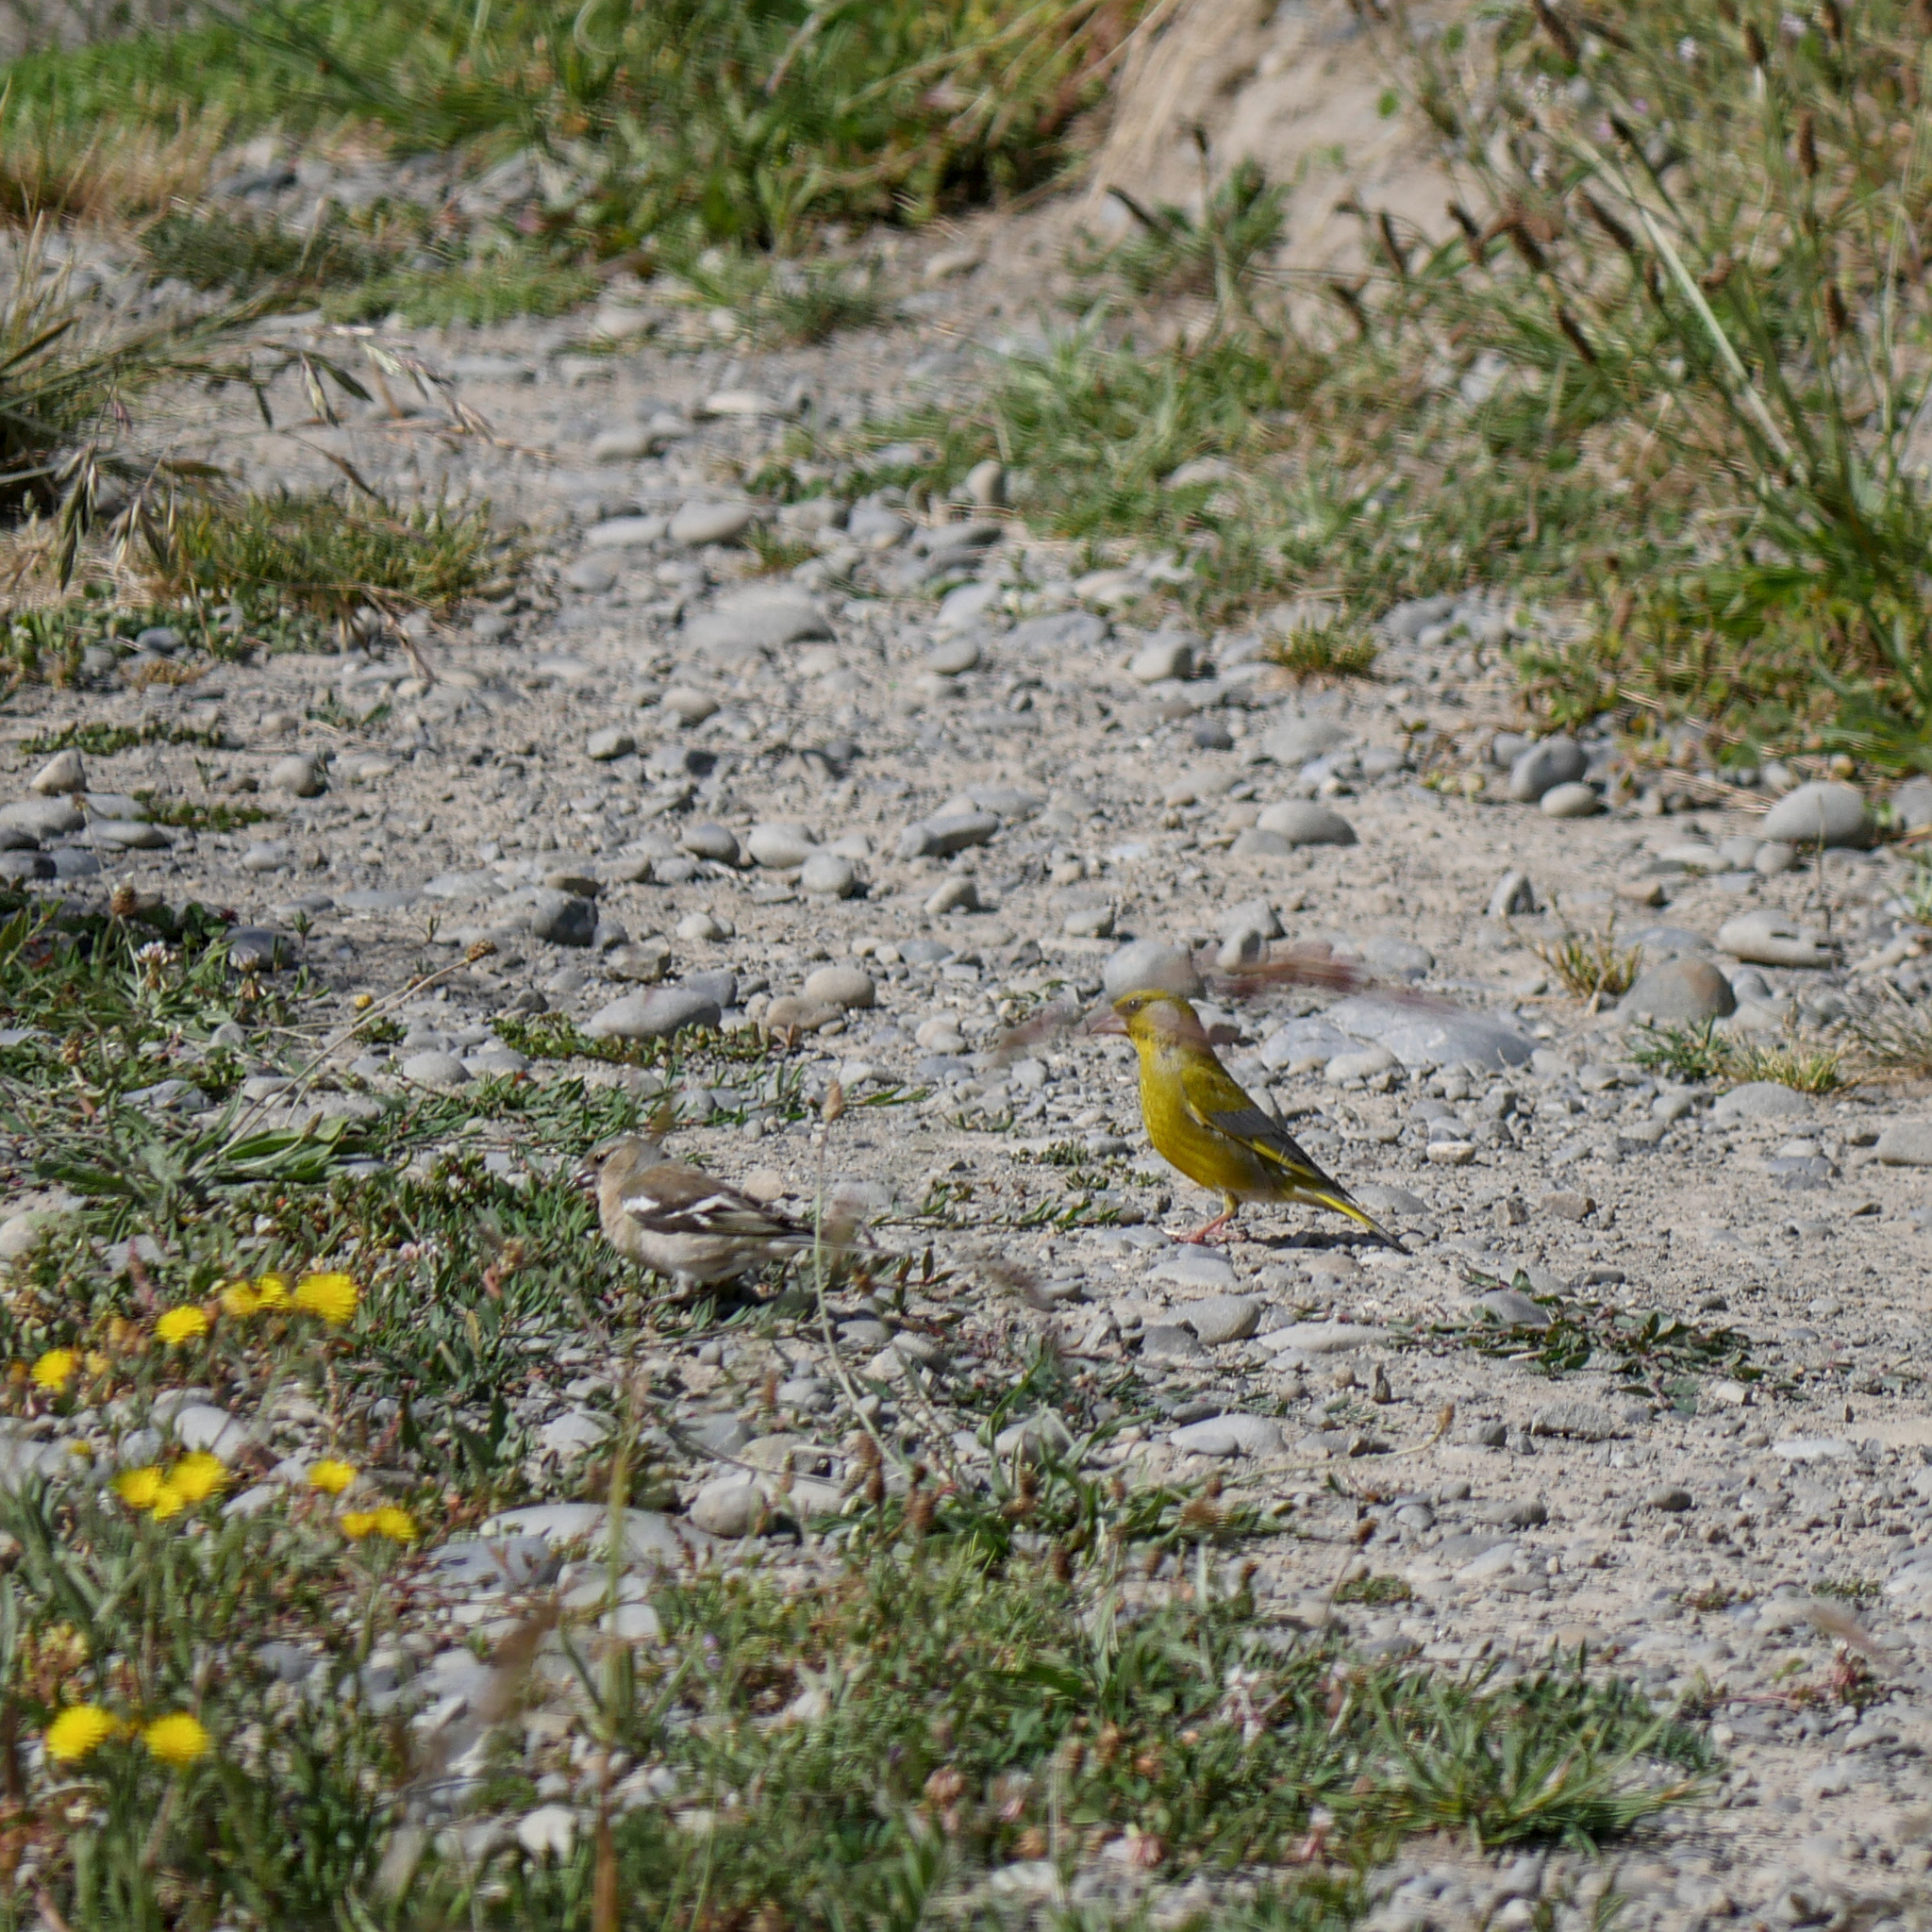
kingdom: Animalia
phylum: Chordata
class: Aves
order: Passeriformes
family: Fringillidae
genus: Fringilla
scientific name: Fringilla coelebs
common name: Common chaffinch
